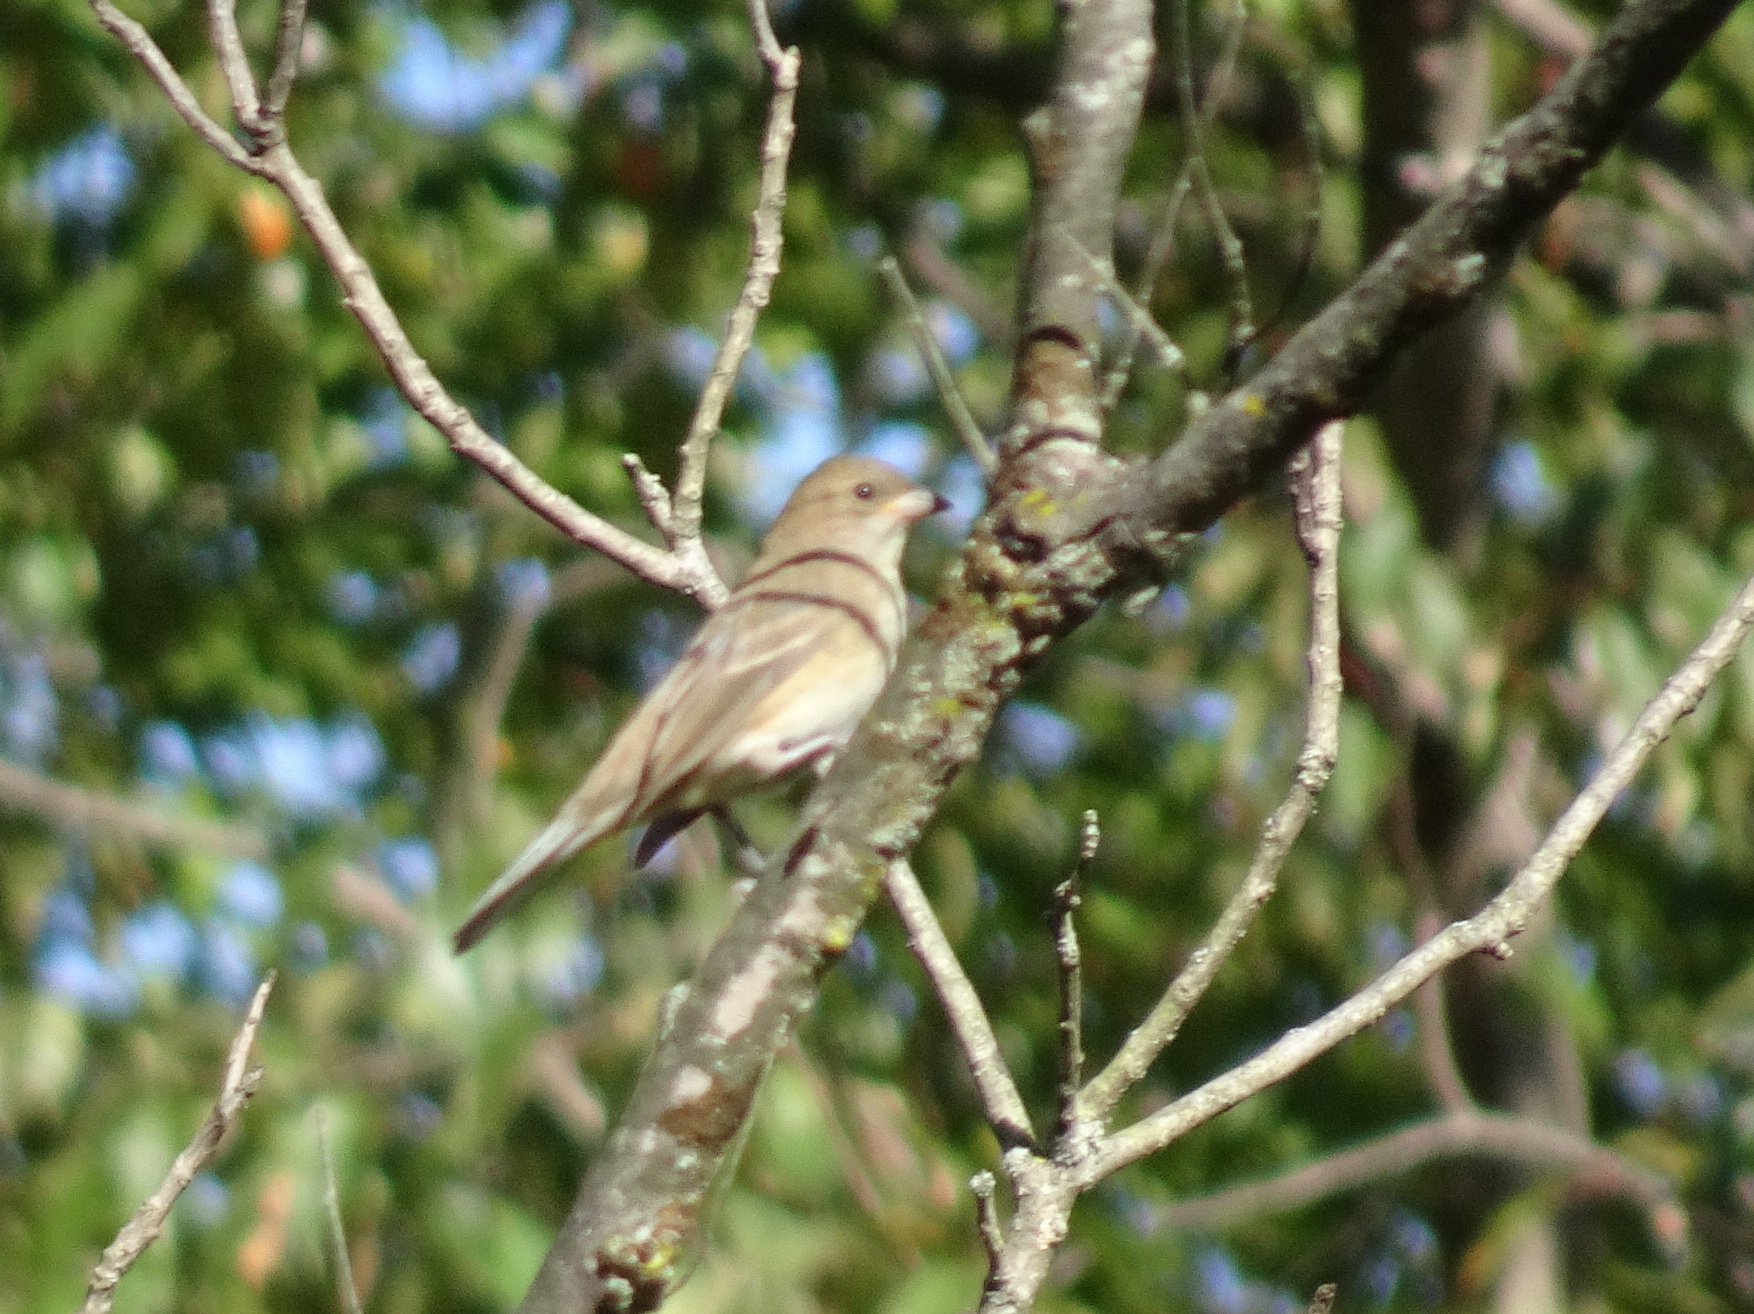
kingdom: Animalia
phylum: Chordata
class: Aves
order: Passeriformes
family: Cardinalidae
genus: Passerina
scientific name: Passerina cyanea
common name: Indigo bunting
